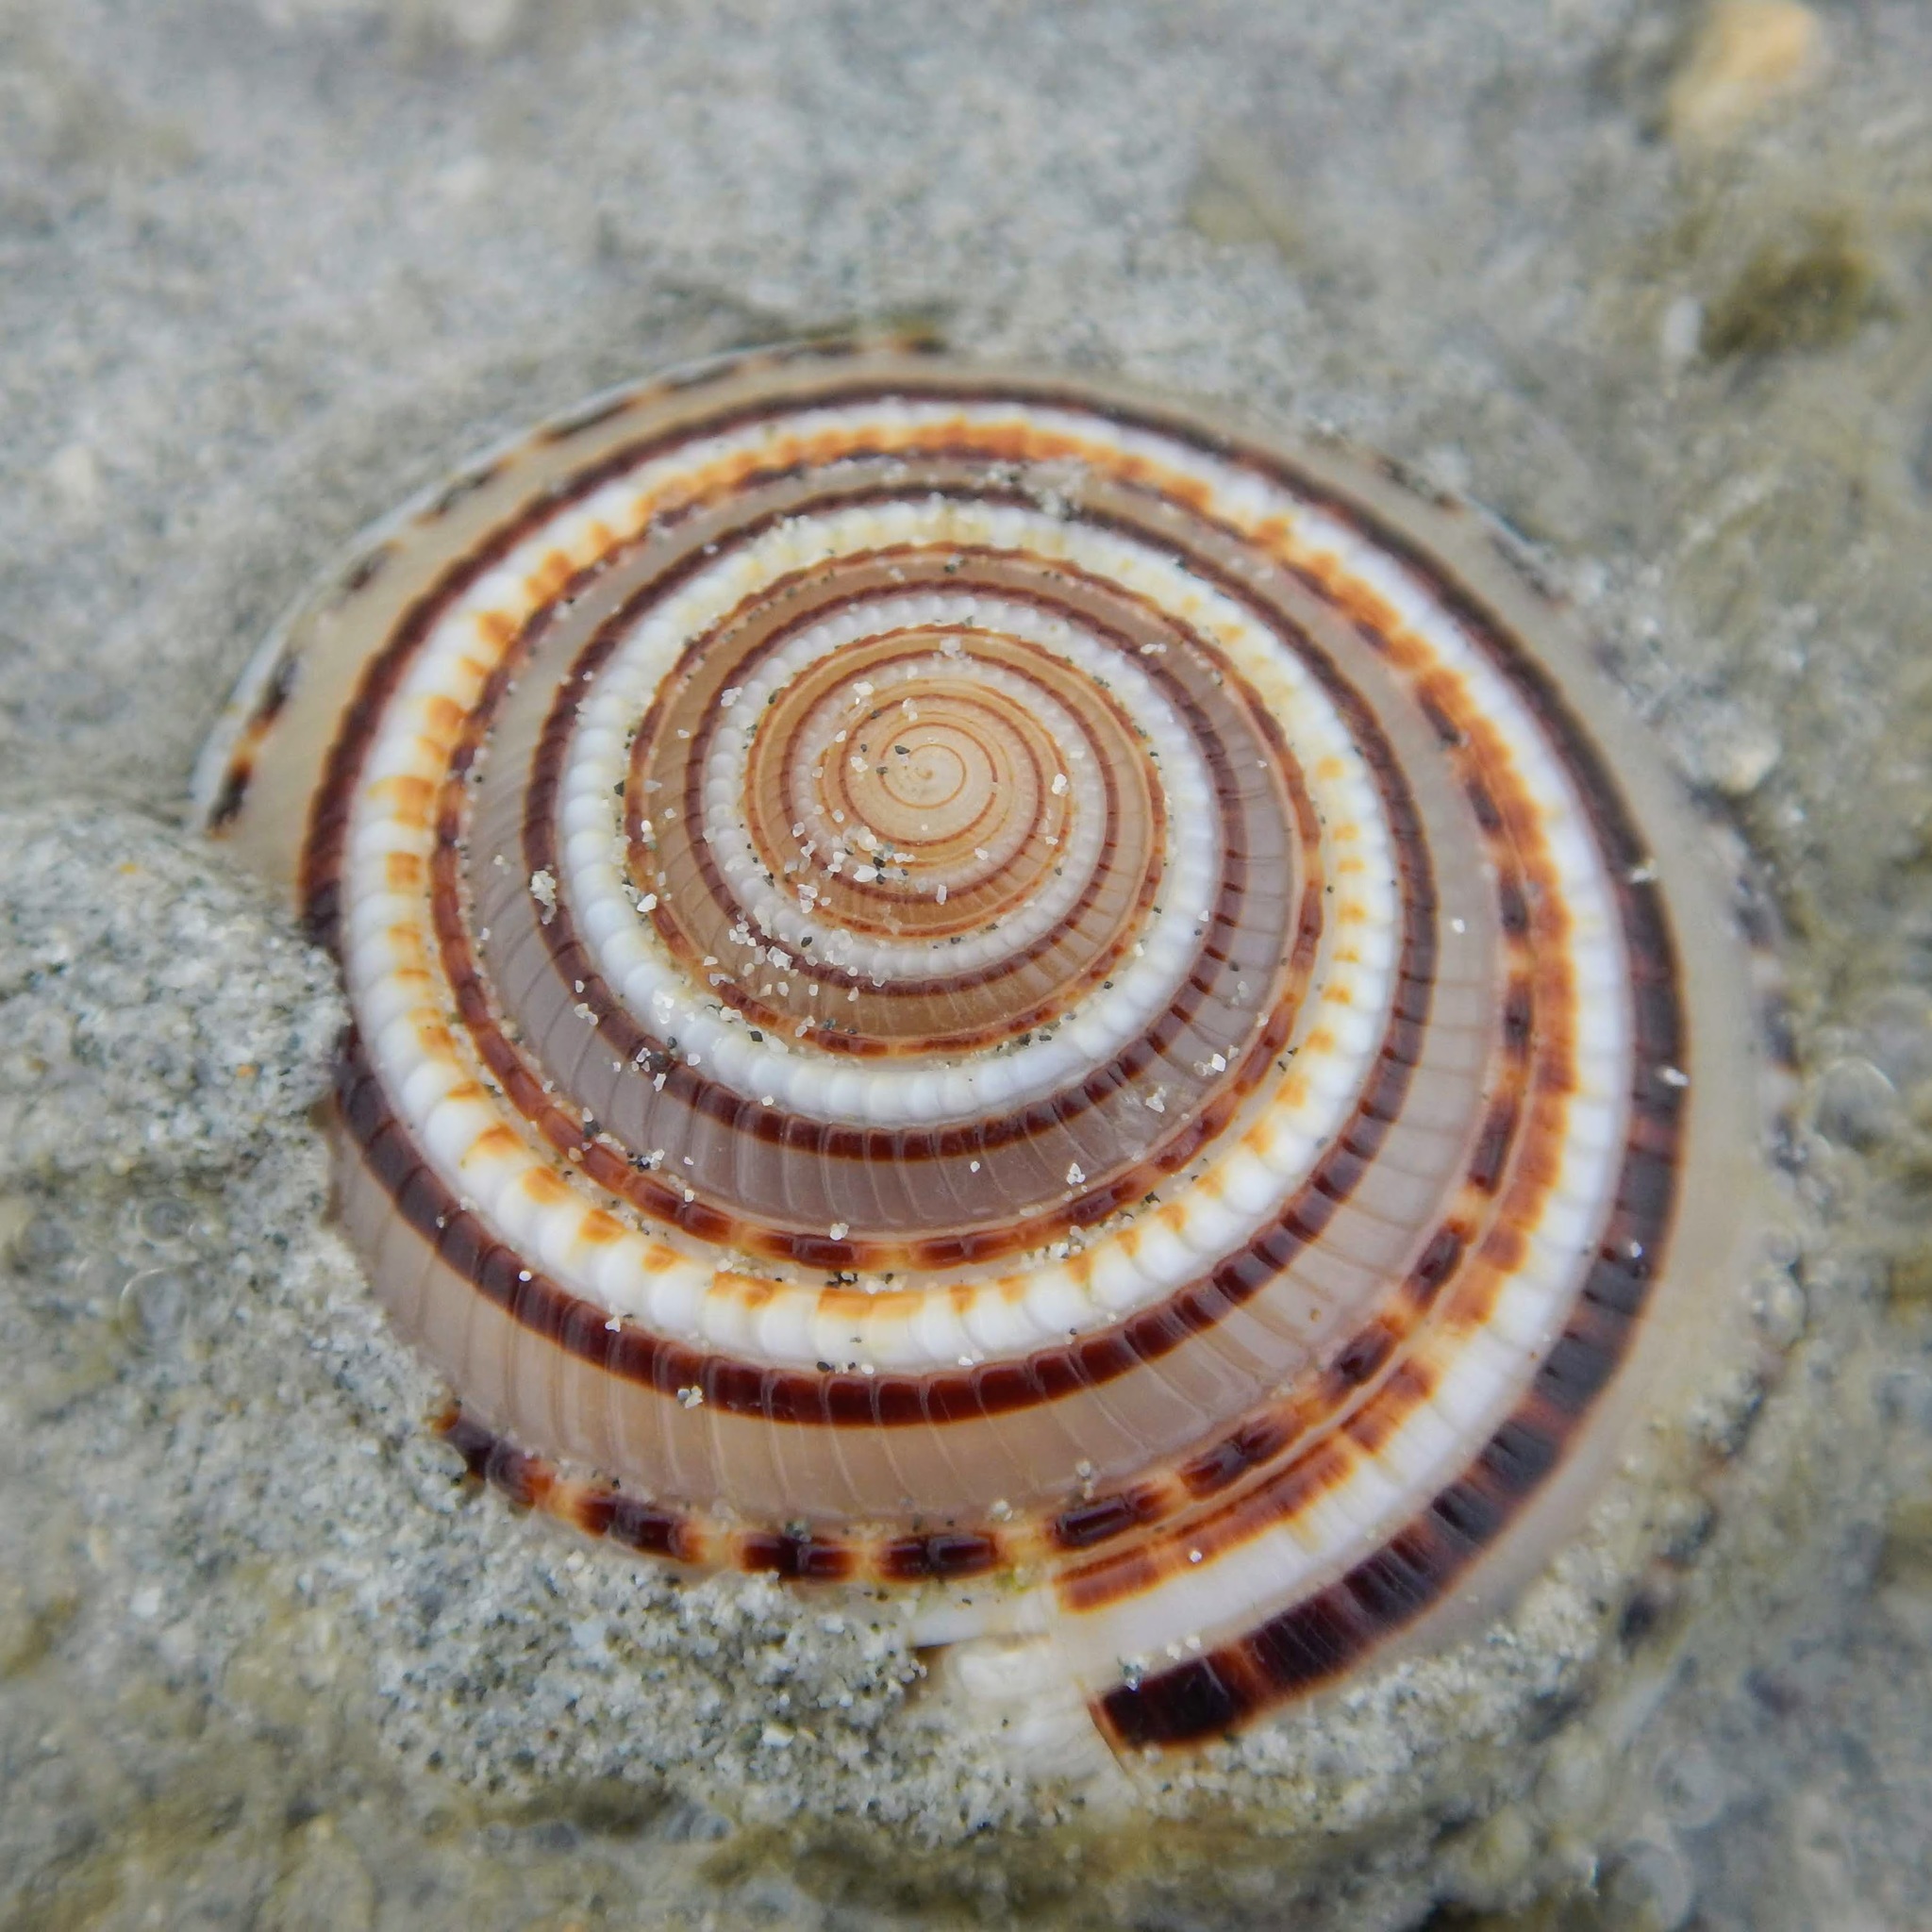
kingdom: Animalia
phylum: Mollusca
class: Gastropoda
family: Architectonicidae
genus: Architectonica
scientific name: Architectonica perspectiva
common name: European sundial snail
